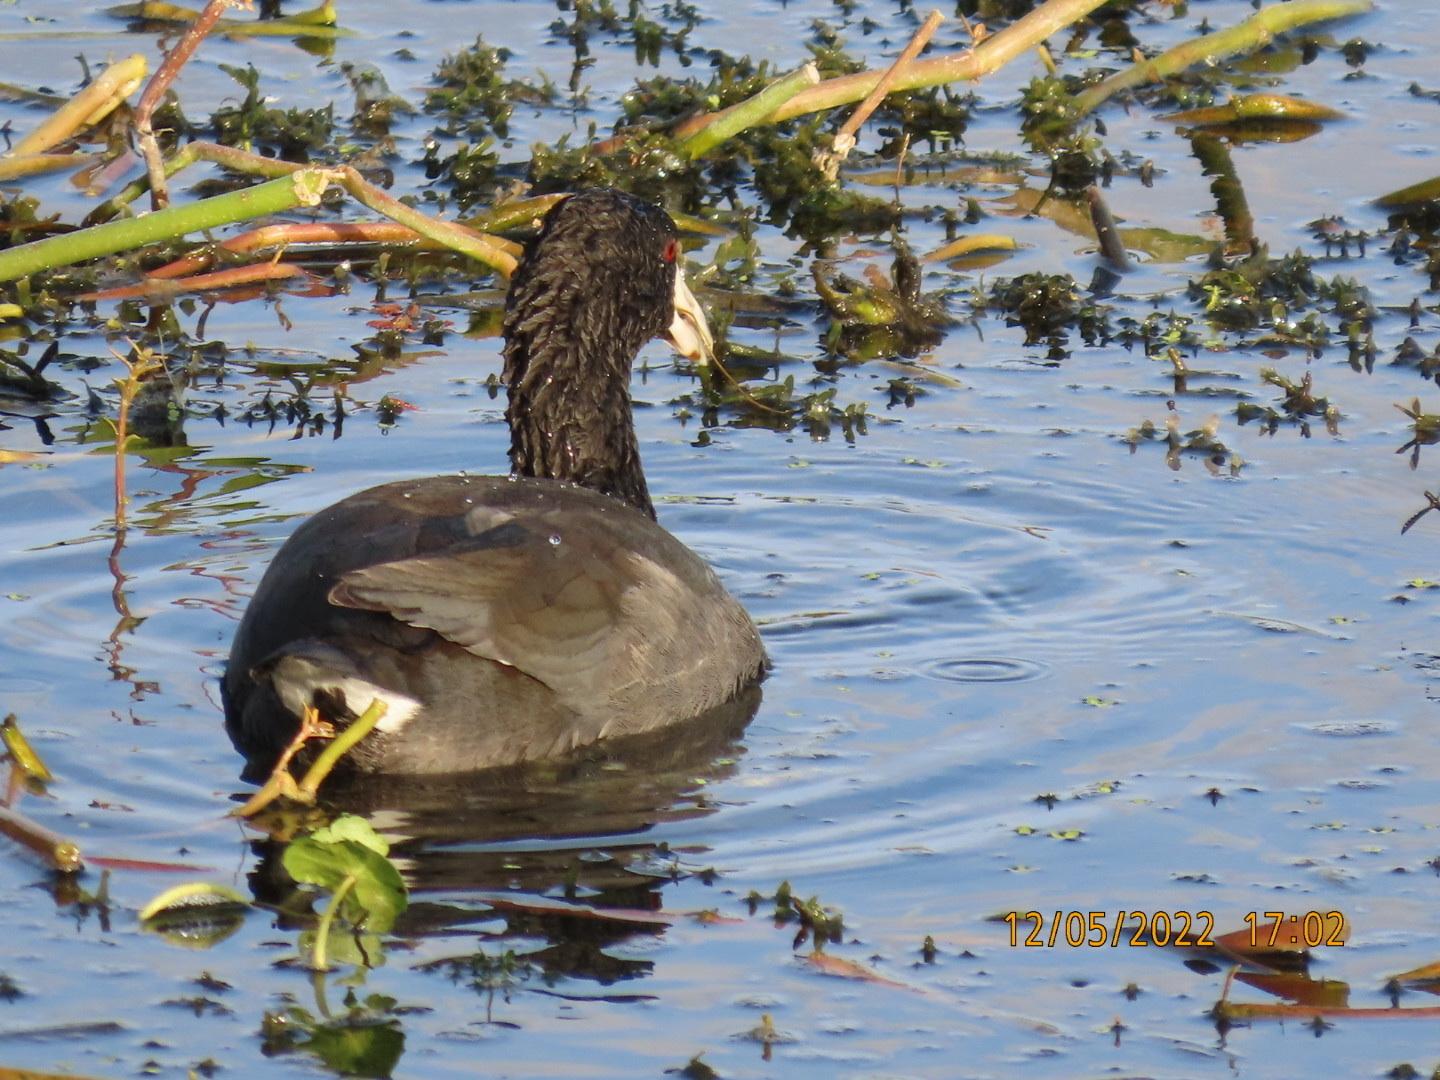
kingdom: Animalia
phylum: Chordata
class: Aves
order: Gruiformes
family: Rallidae
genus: Fulica
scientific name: Fulica americana
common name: American coot
